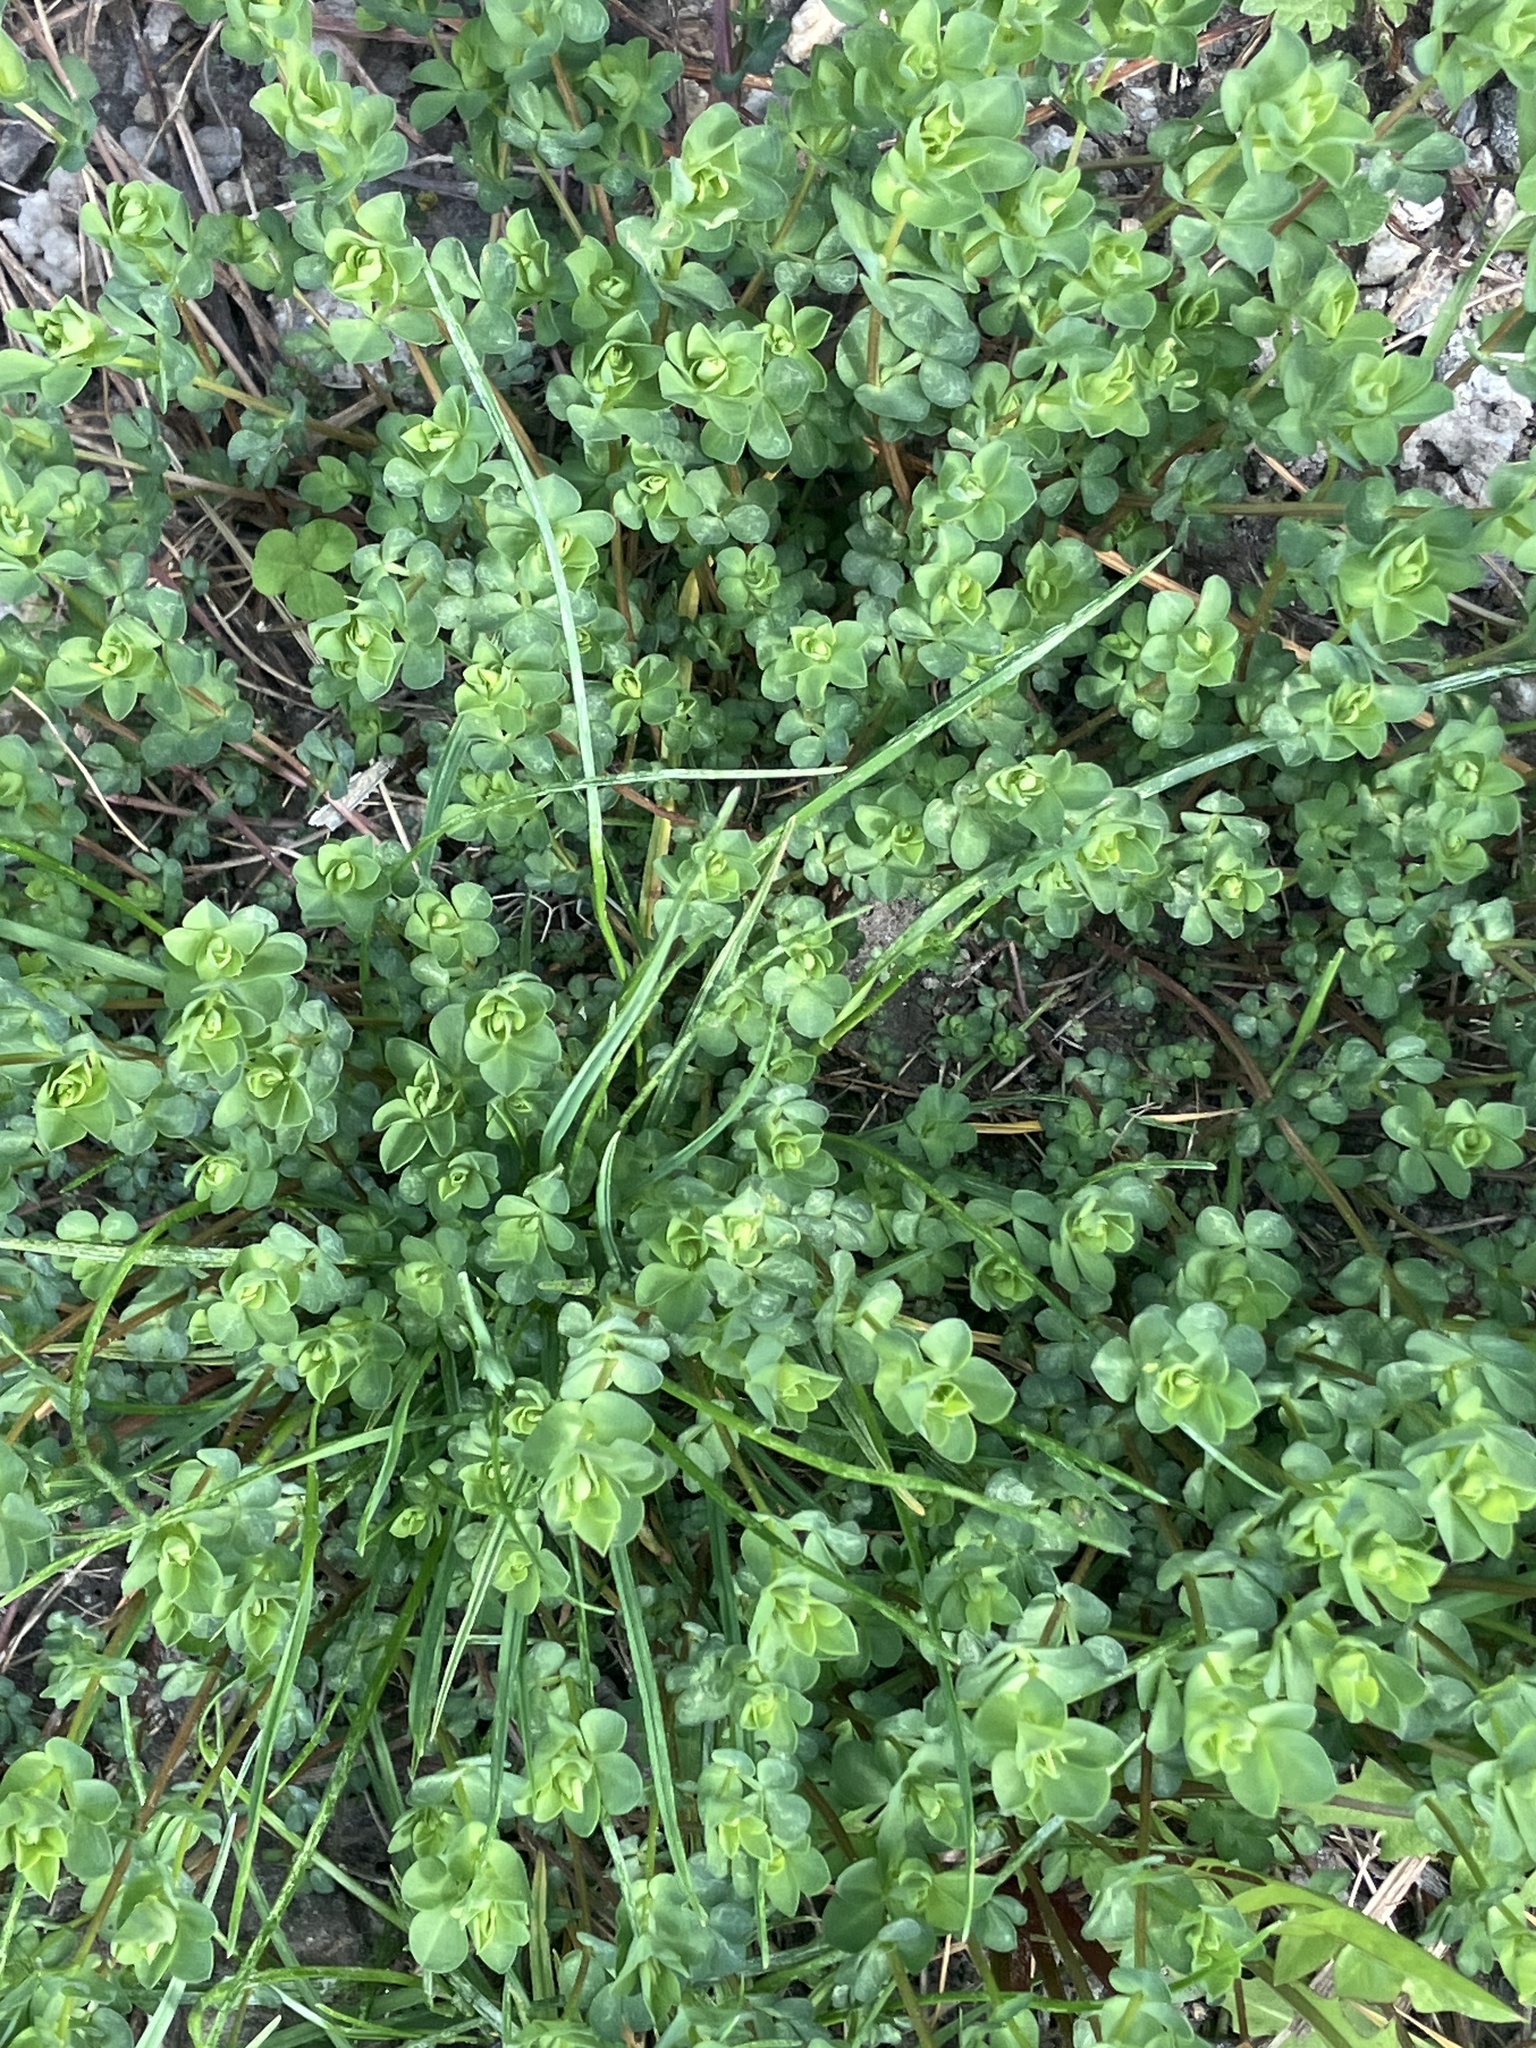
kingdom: Plantae
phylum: Tracheophyta
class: Magnoliopsida
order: Fabales
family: Fabaceae
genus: Lotus
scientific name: Lotus corniculatus
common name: Common bird's-foot-trefoil
